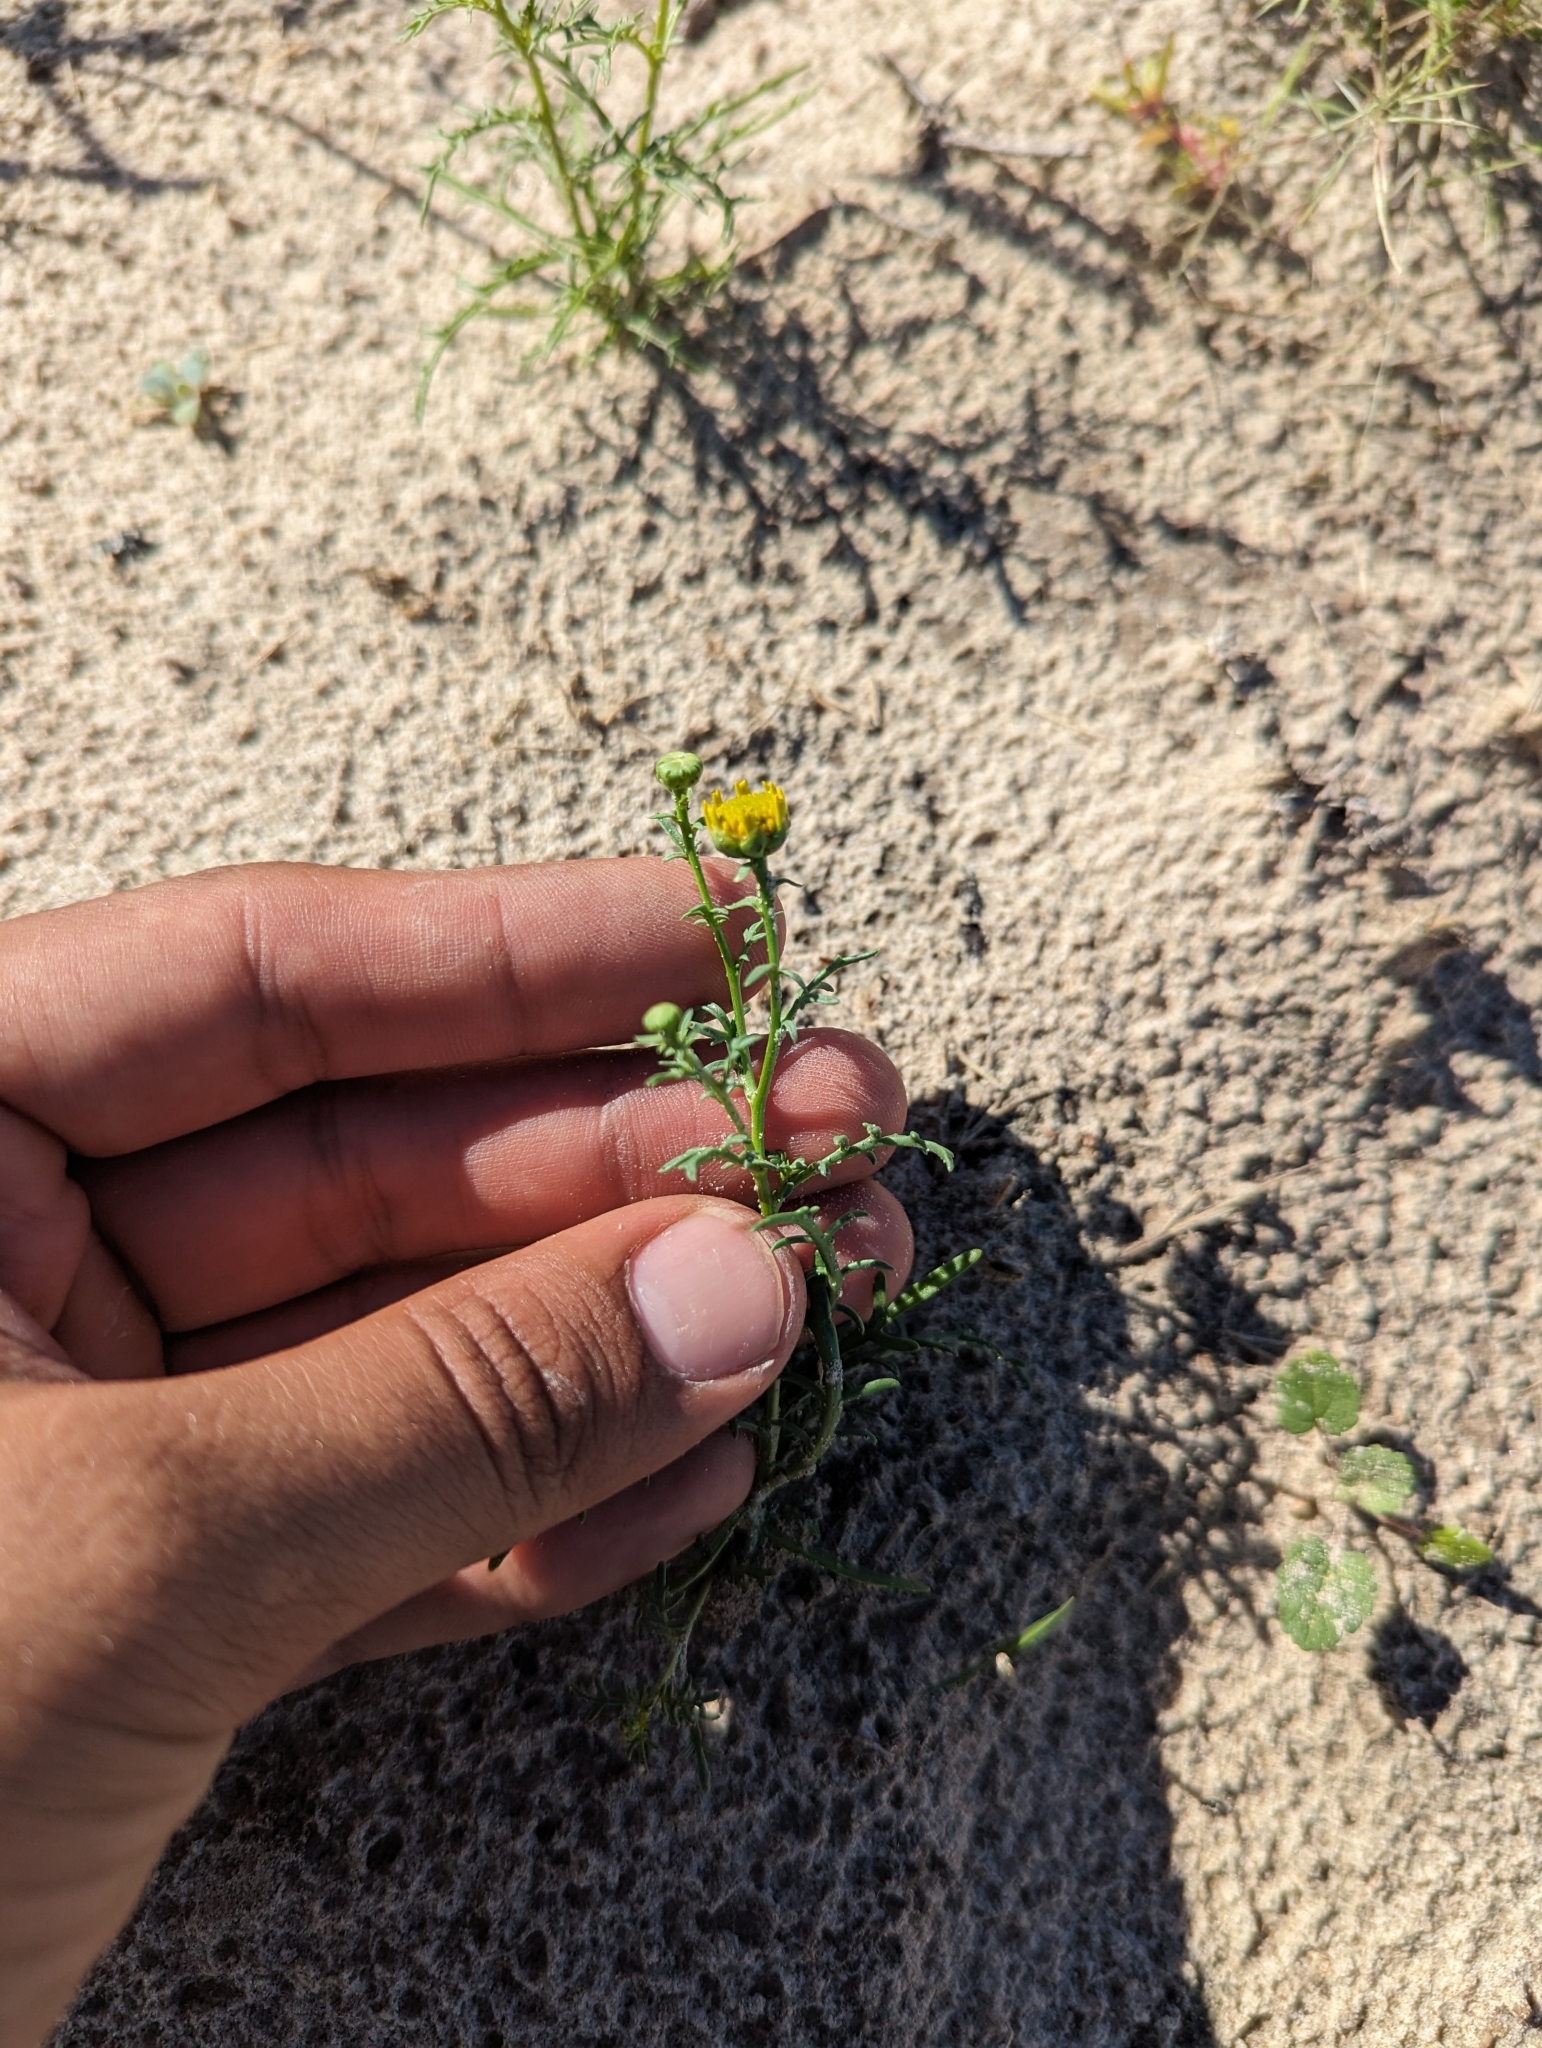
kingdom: Plantae
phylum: Tracheophyta
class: Magnoliopsida
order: Asterales
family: Asteraceae
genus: Boeberastrum
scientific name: Boeberastrum anthemidifolium
